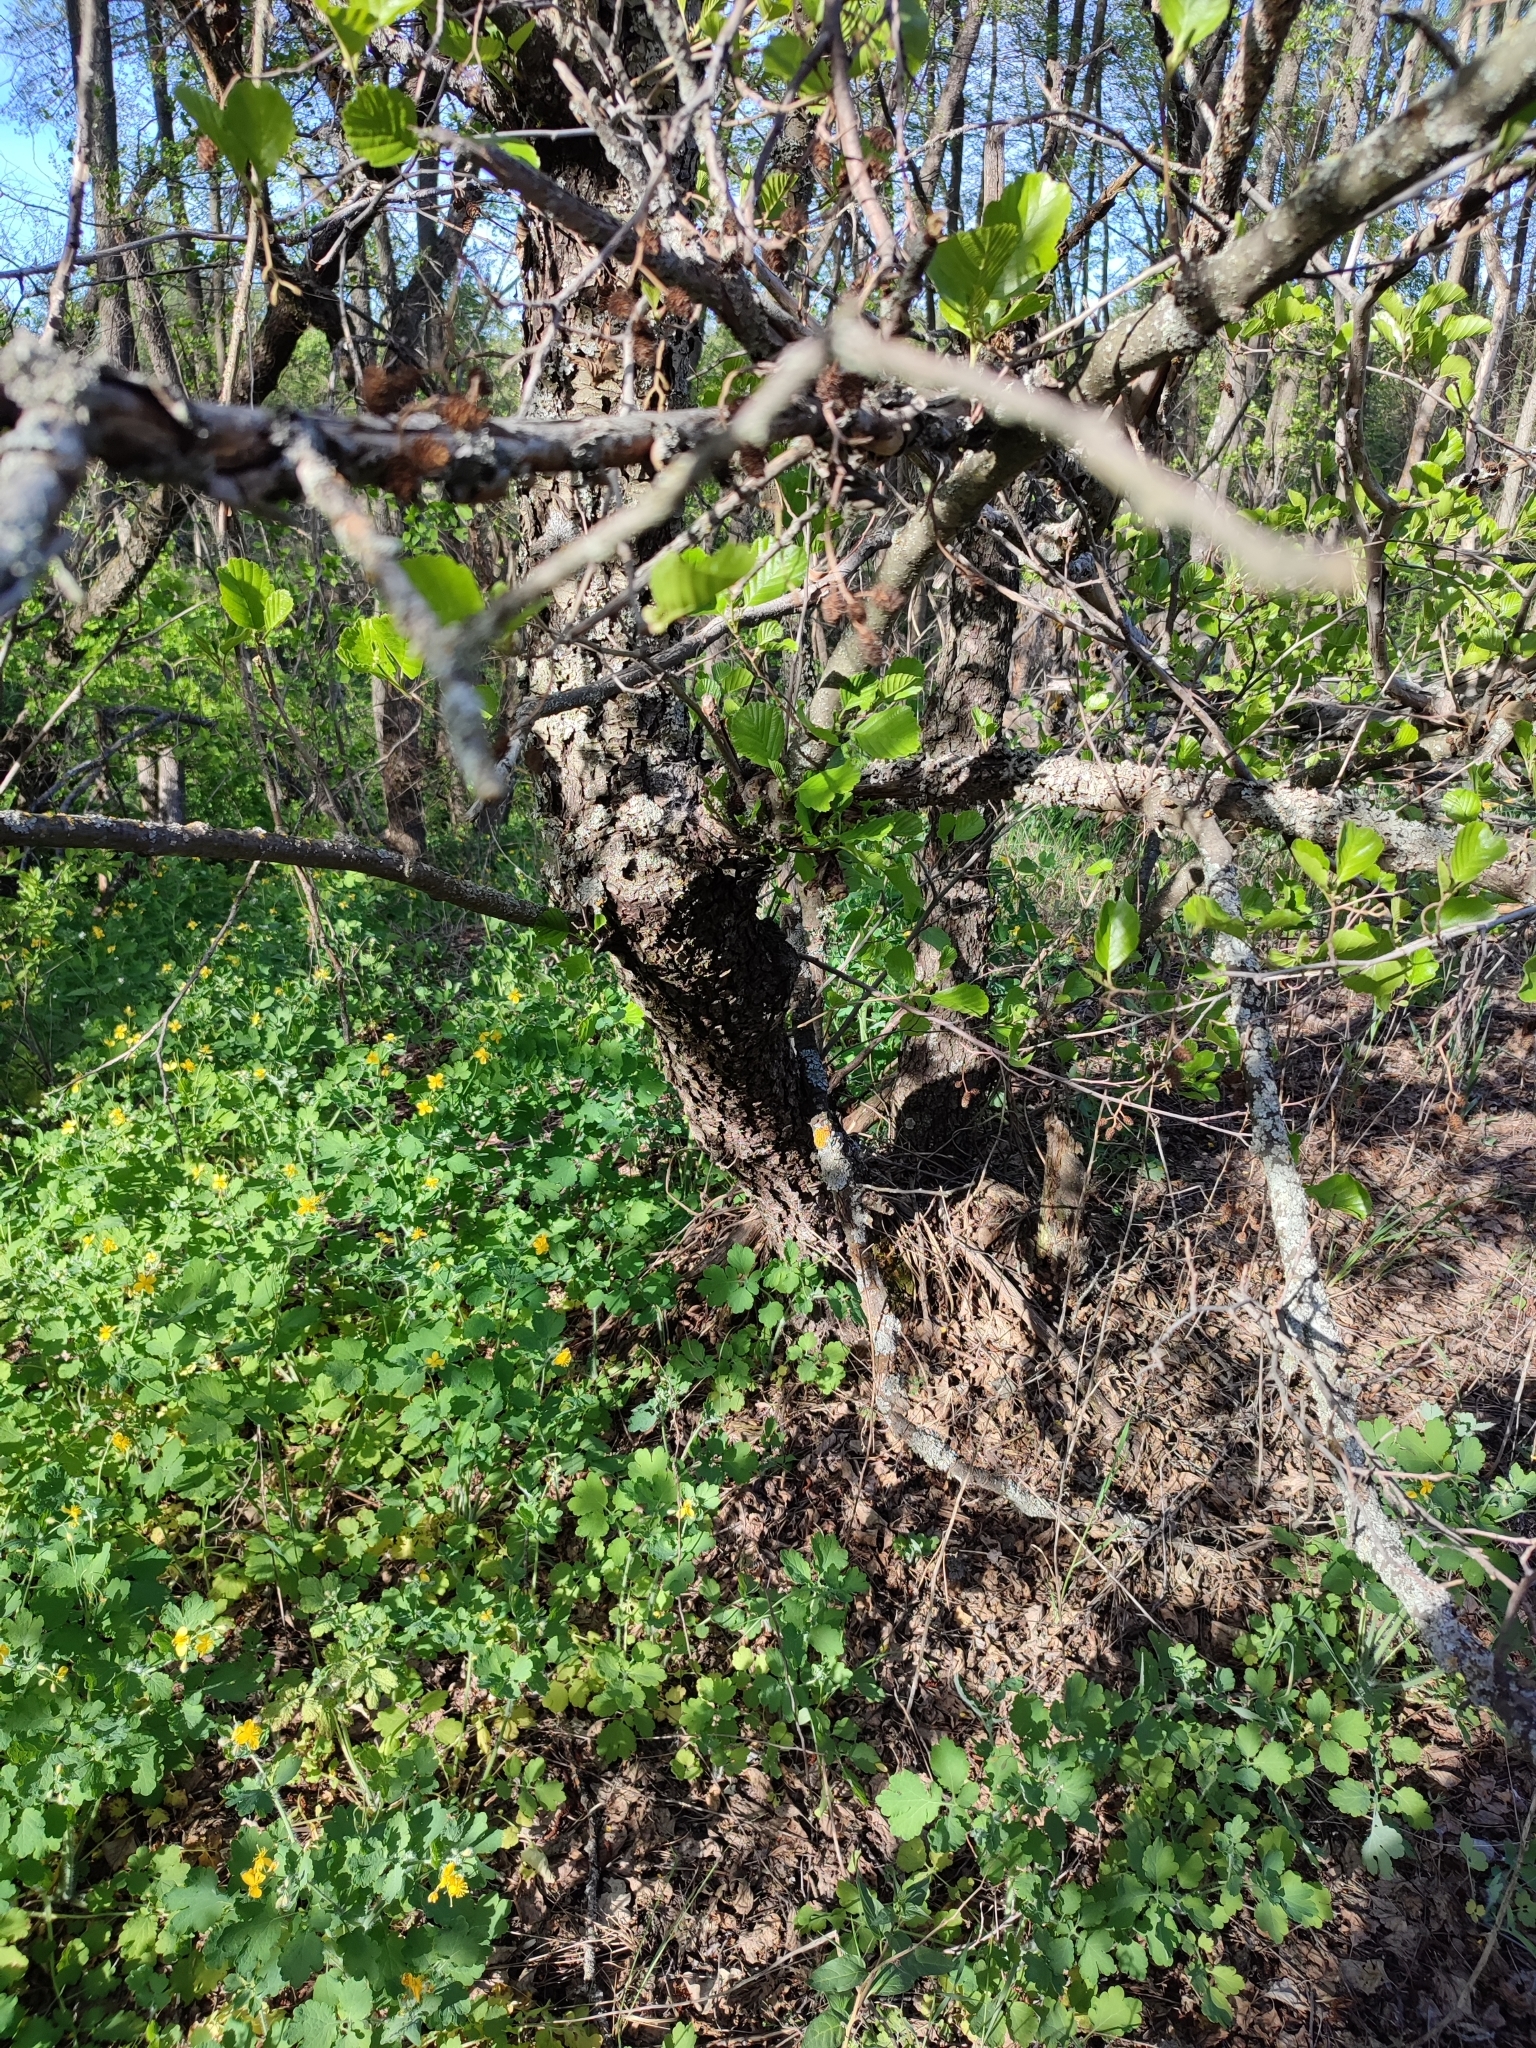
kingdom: Plantae
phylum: Tracheophyta
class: Magnoliopsida
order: Fagales
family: Betulaceae
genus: Alnus
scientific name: Alnus glutinosa
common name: Black alder
